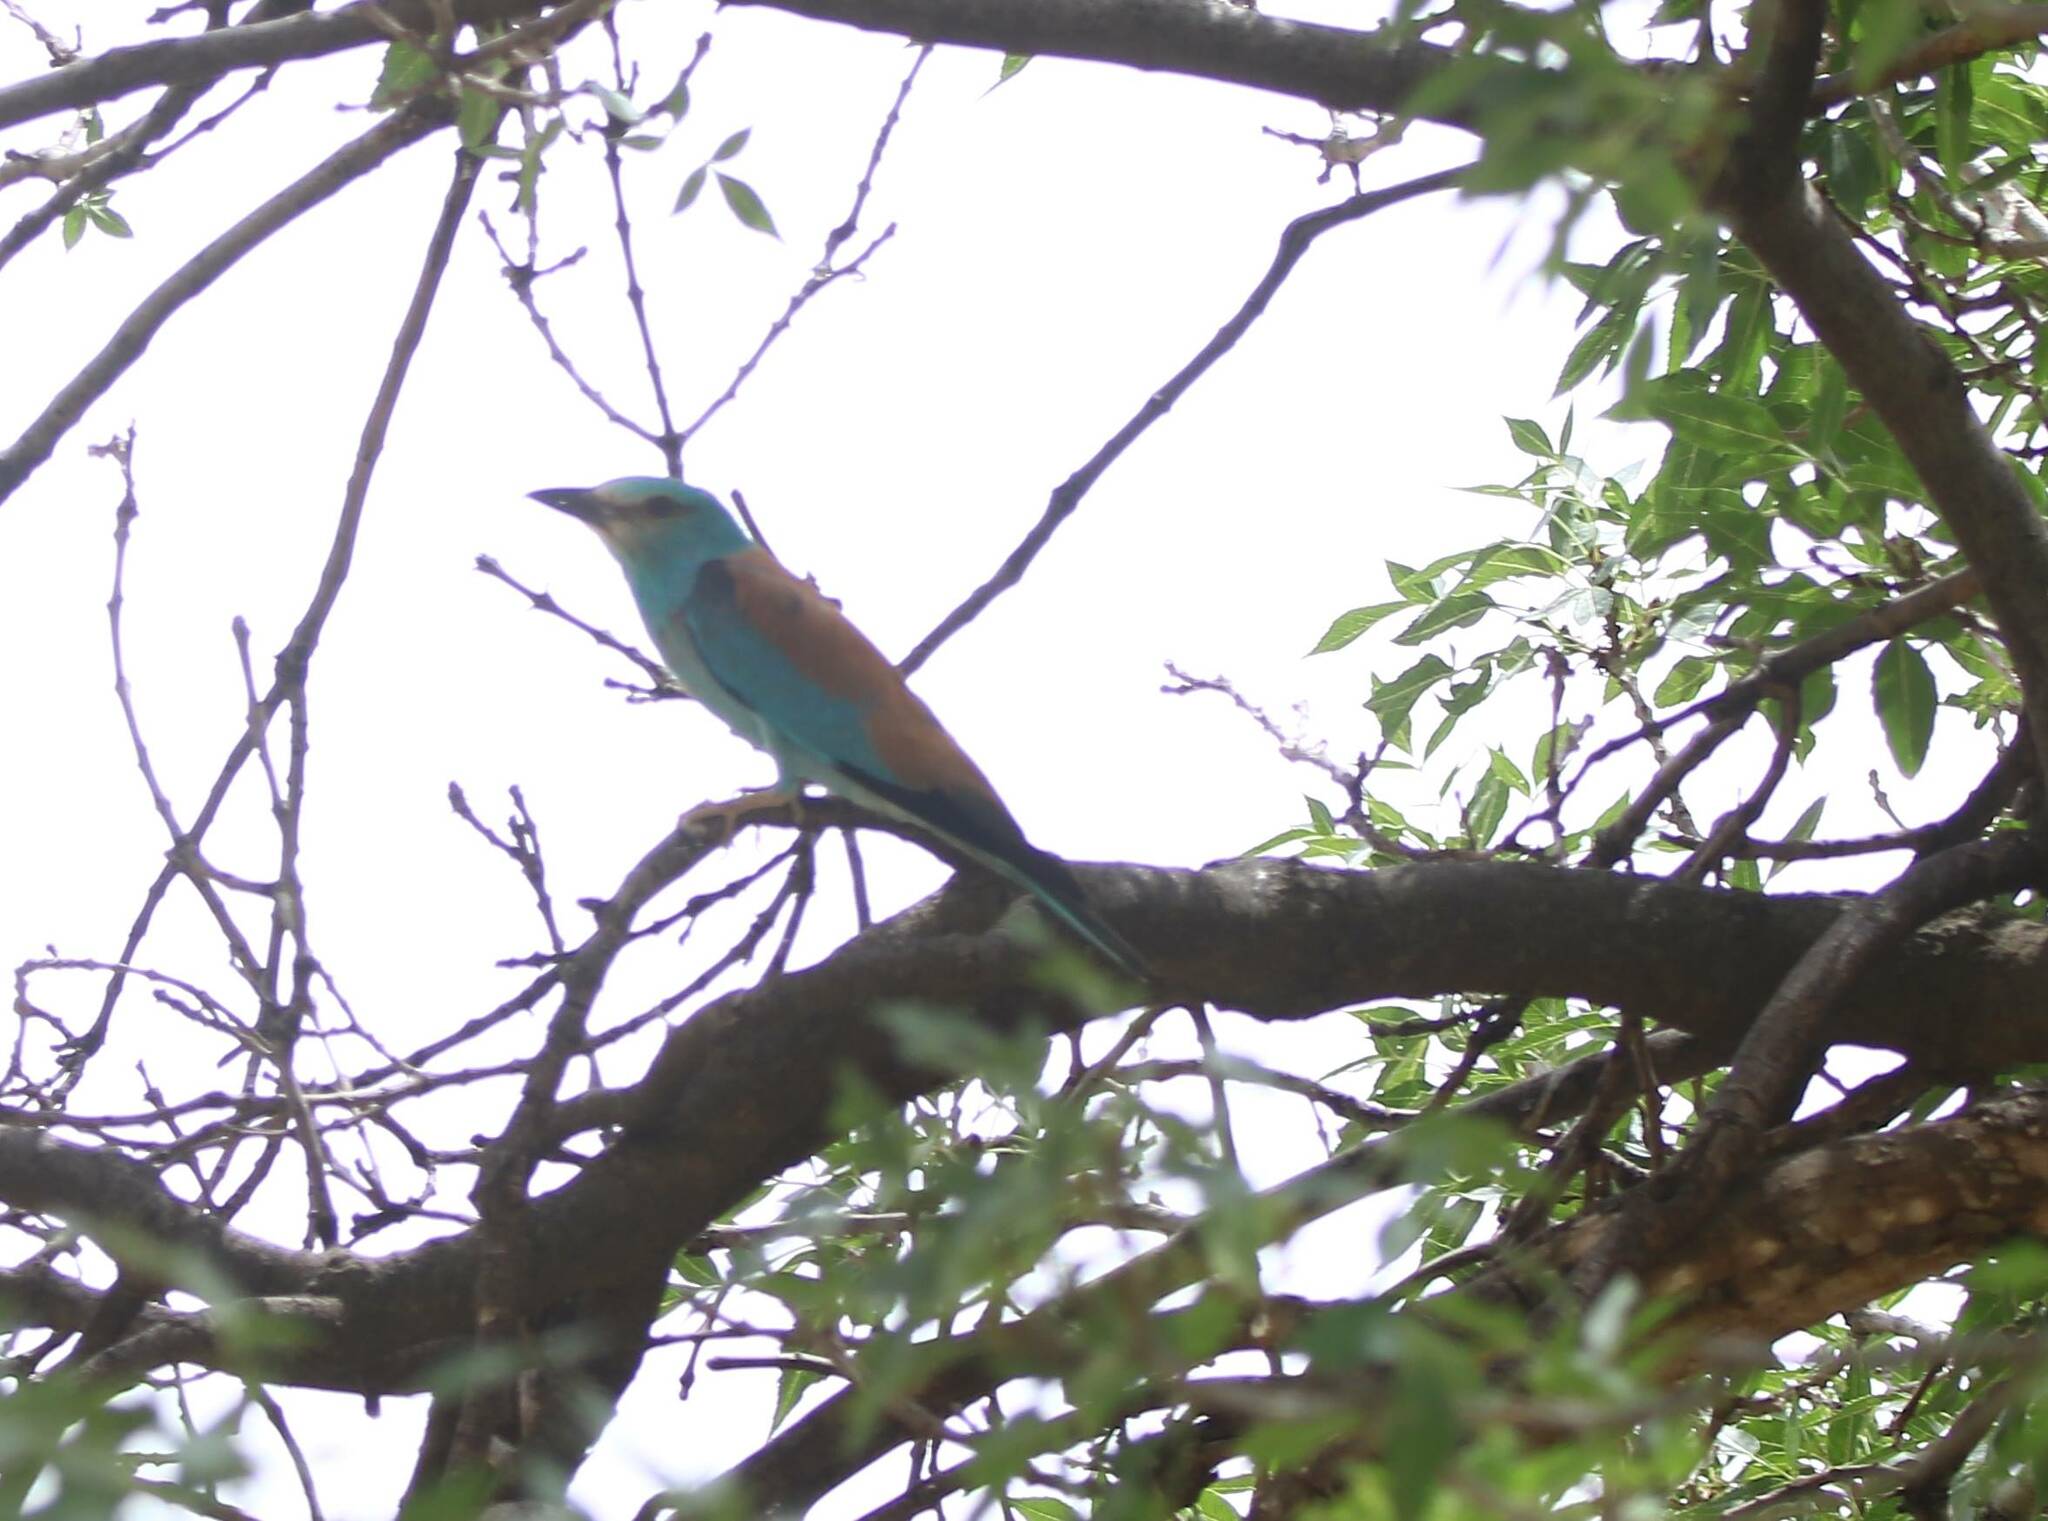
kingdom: Animalia
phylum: Chordata
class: Aves
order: Coraciiformes
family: Coraciidae
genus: Coracias
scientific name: Coracias garrulus
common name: European roller
